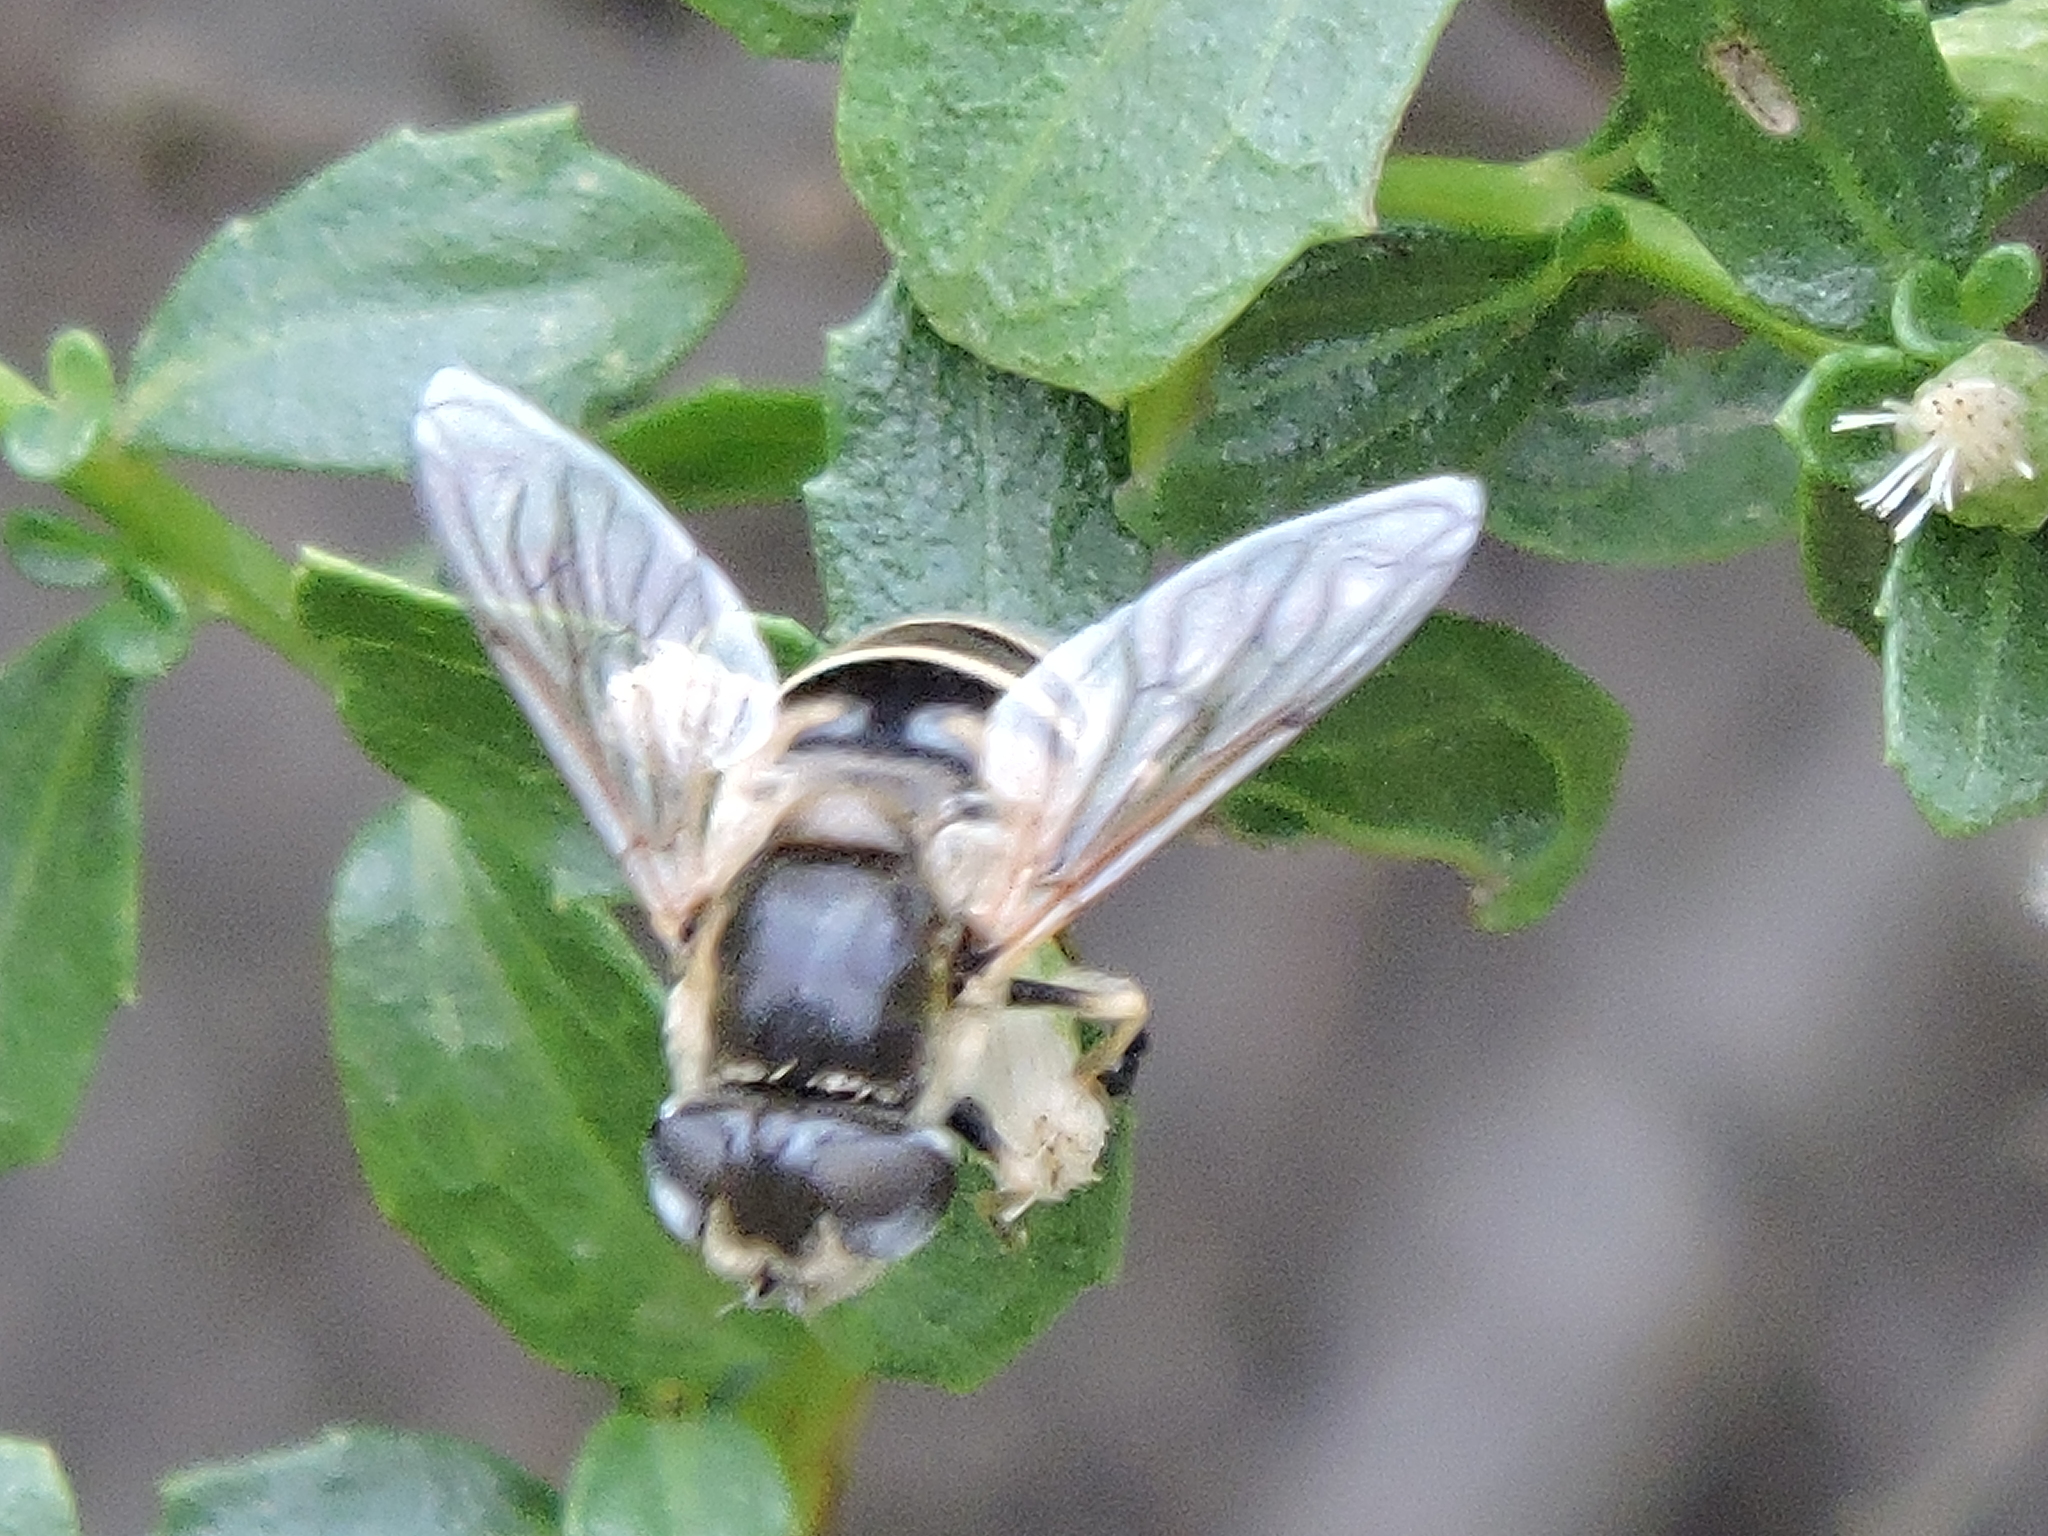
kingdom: Animalia
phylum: Arthropoda
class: Insecta
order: Diptera
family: Syrphidae
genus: Eristalis
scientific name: Eristalis hirta
